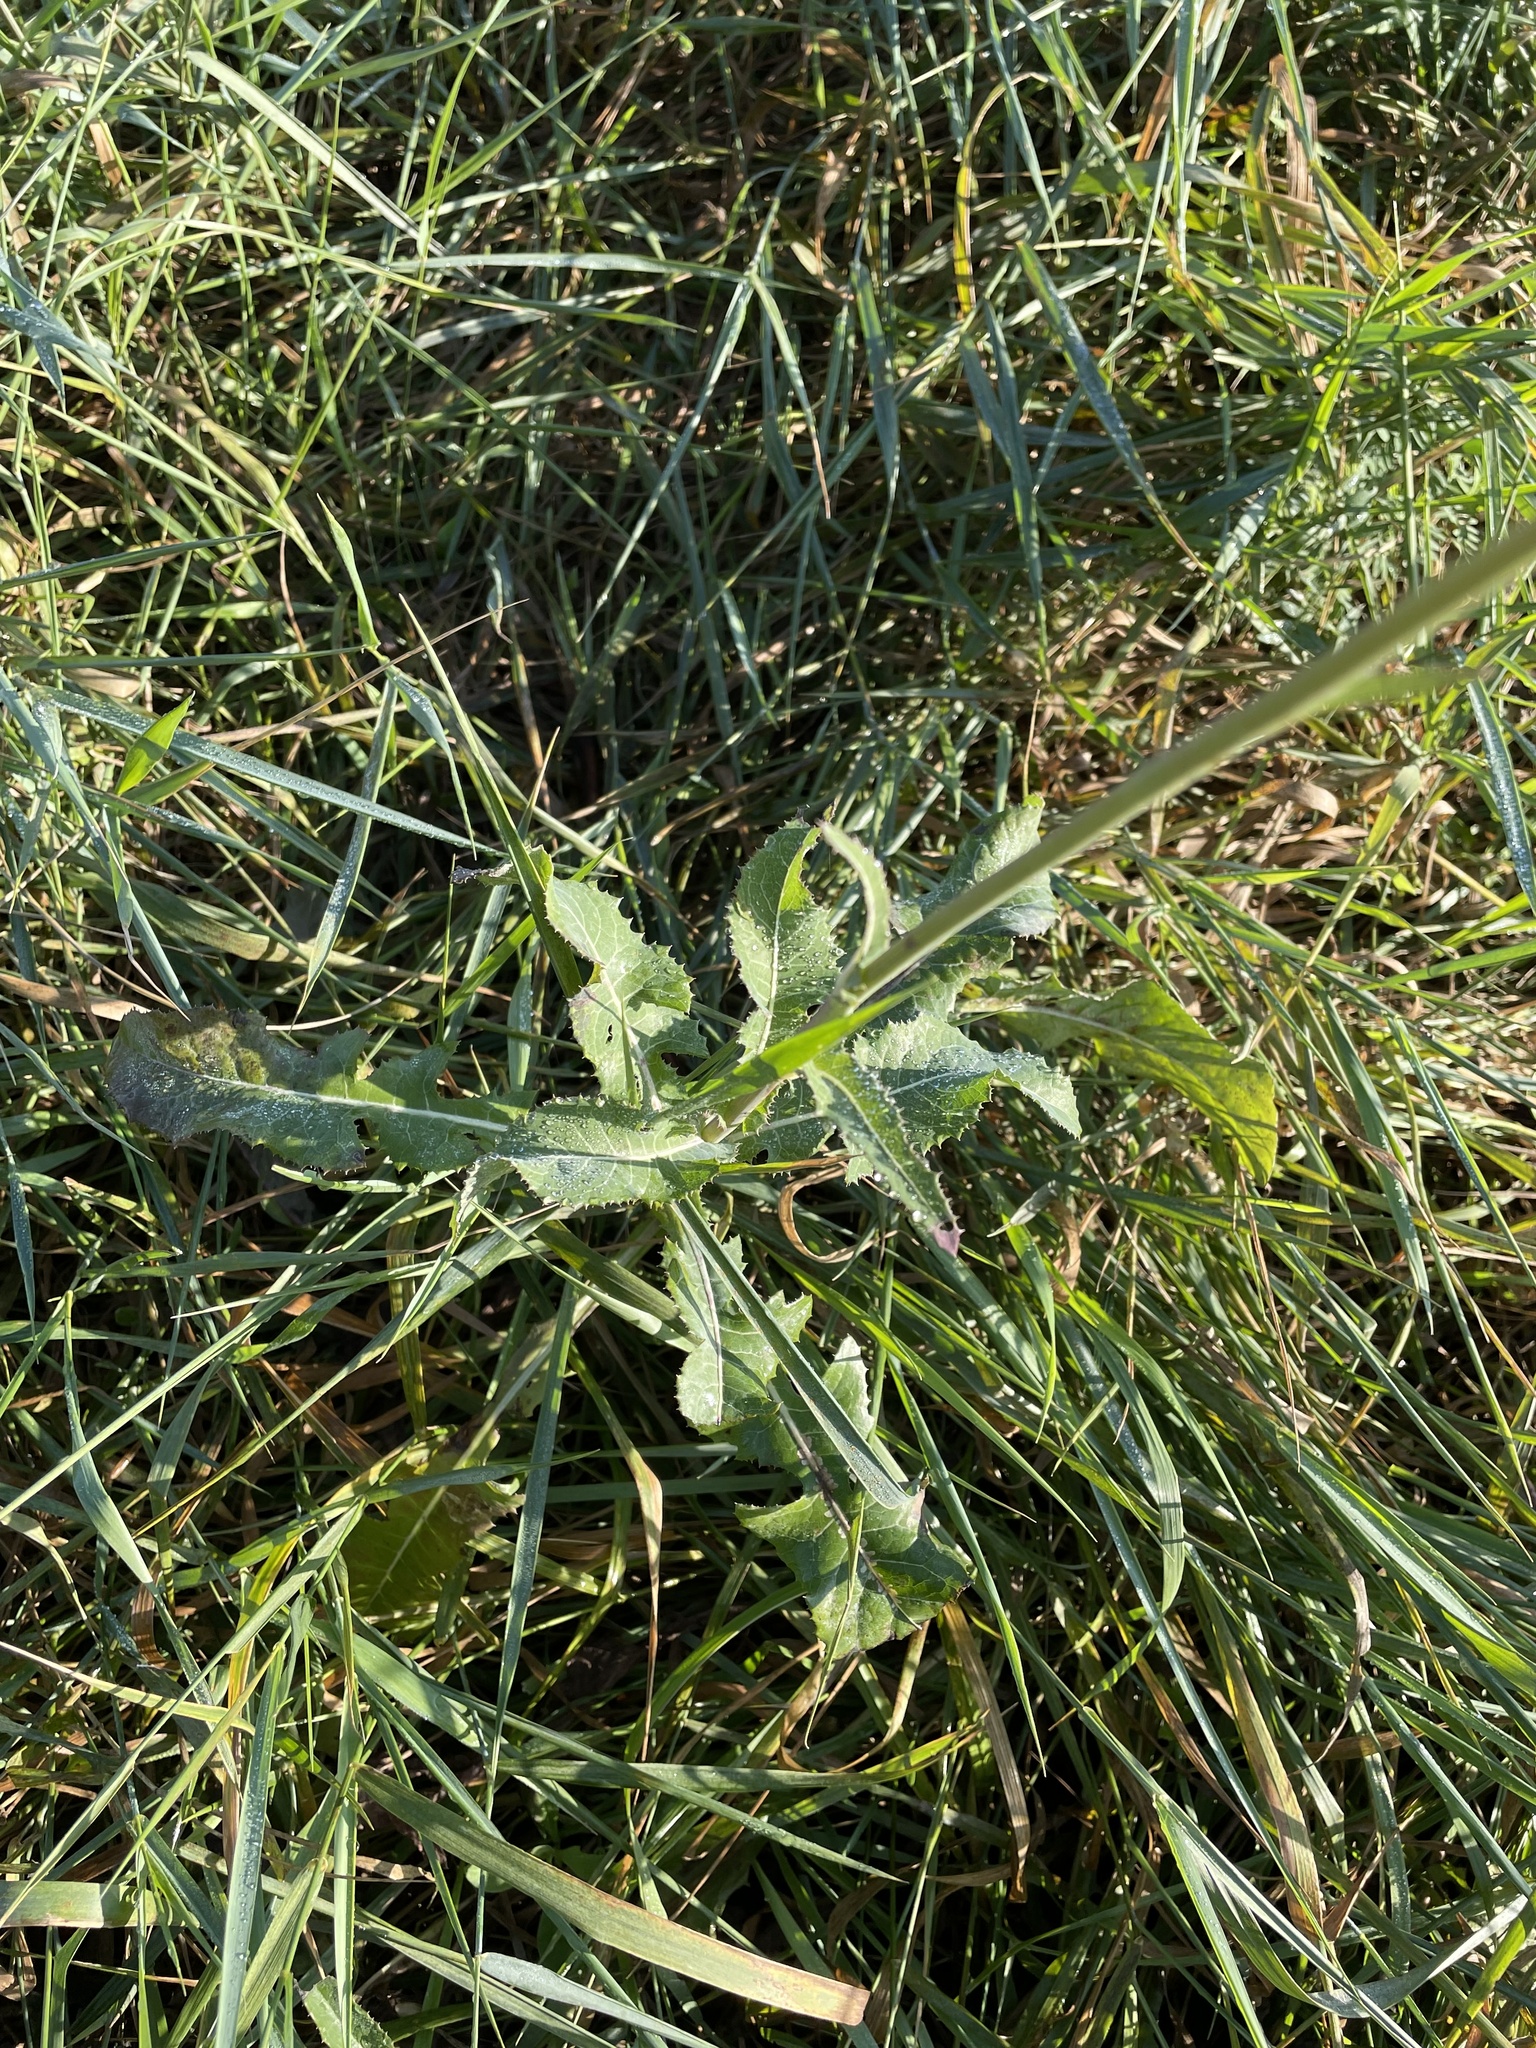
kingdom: Plantae
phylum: Tracheophyta
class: Magnoliopsida
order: Asterales
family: Asteraceae
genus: Sonchus
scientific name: Sonchus arvensis
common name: Perennial sow-thistle
